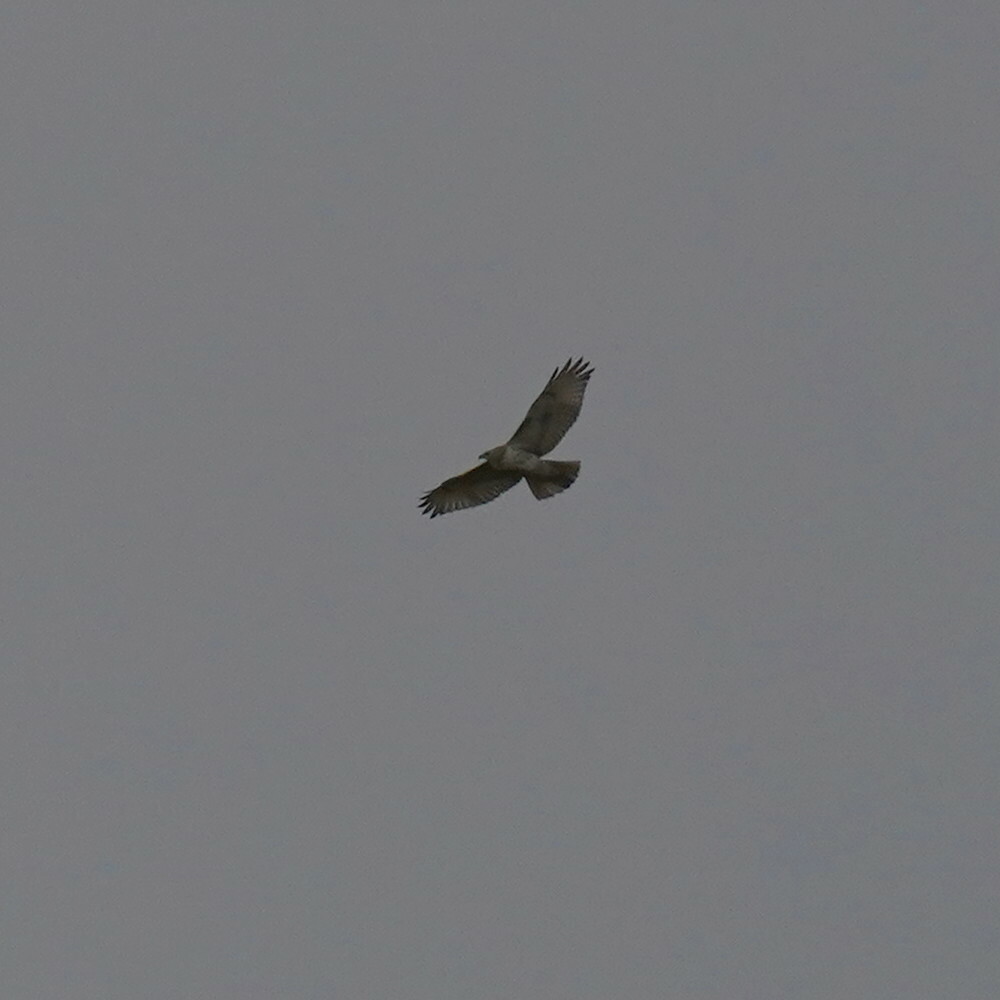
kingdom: Animalia
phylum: Chordata
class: Aves
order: Accipitriformes
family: Accipitridae
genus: Buteo
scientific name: Buteo jamaicensis
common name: Red-tailed hawk
